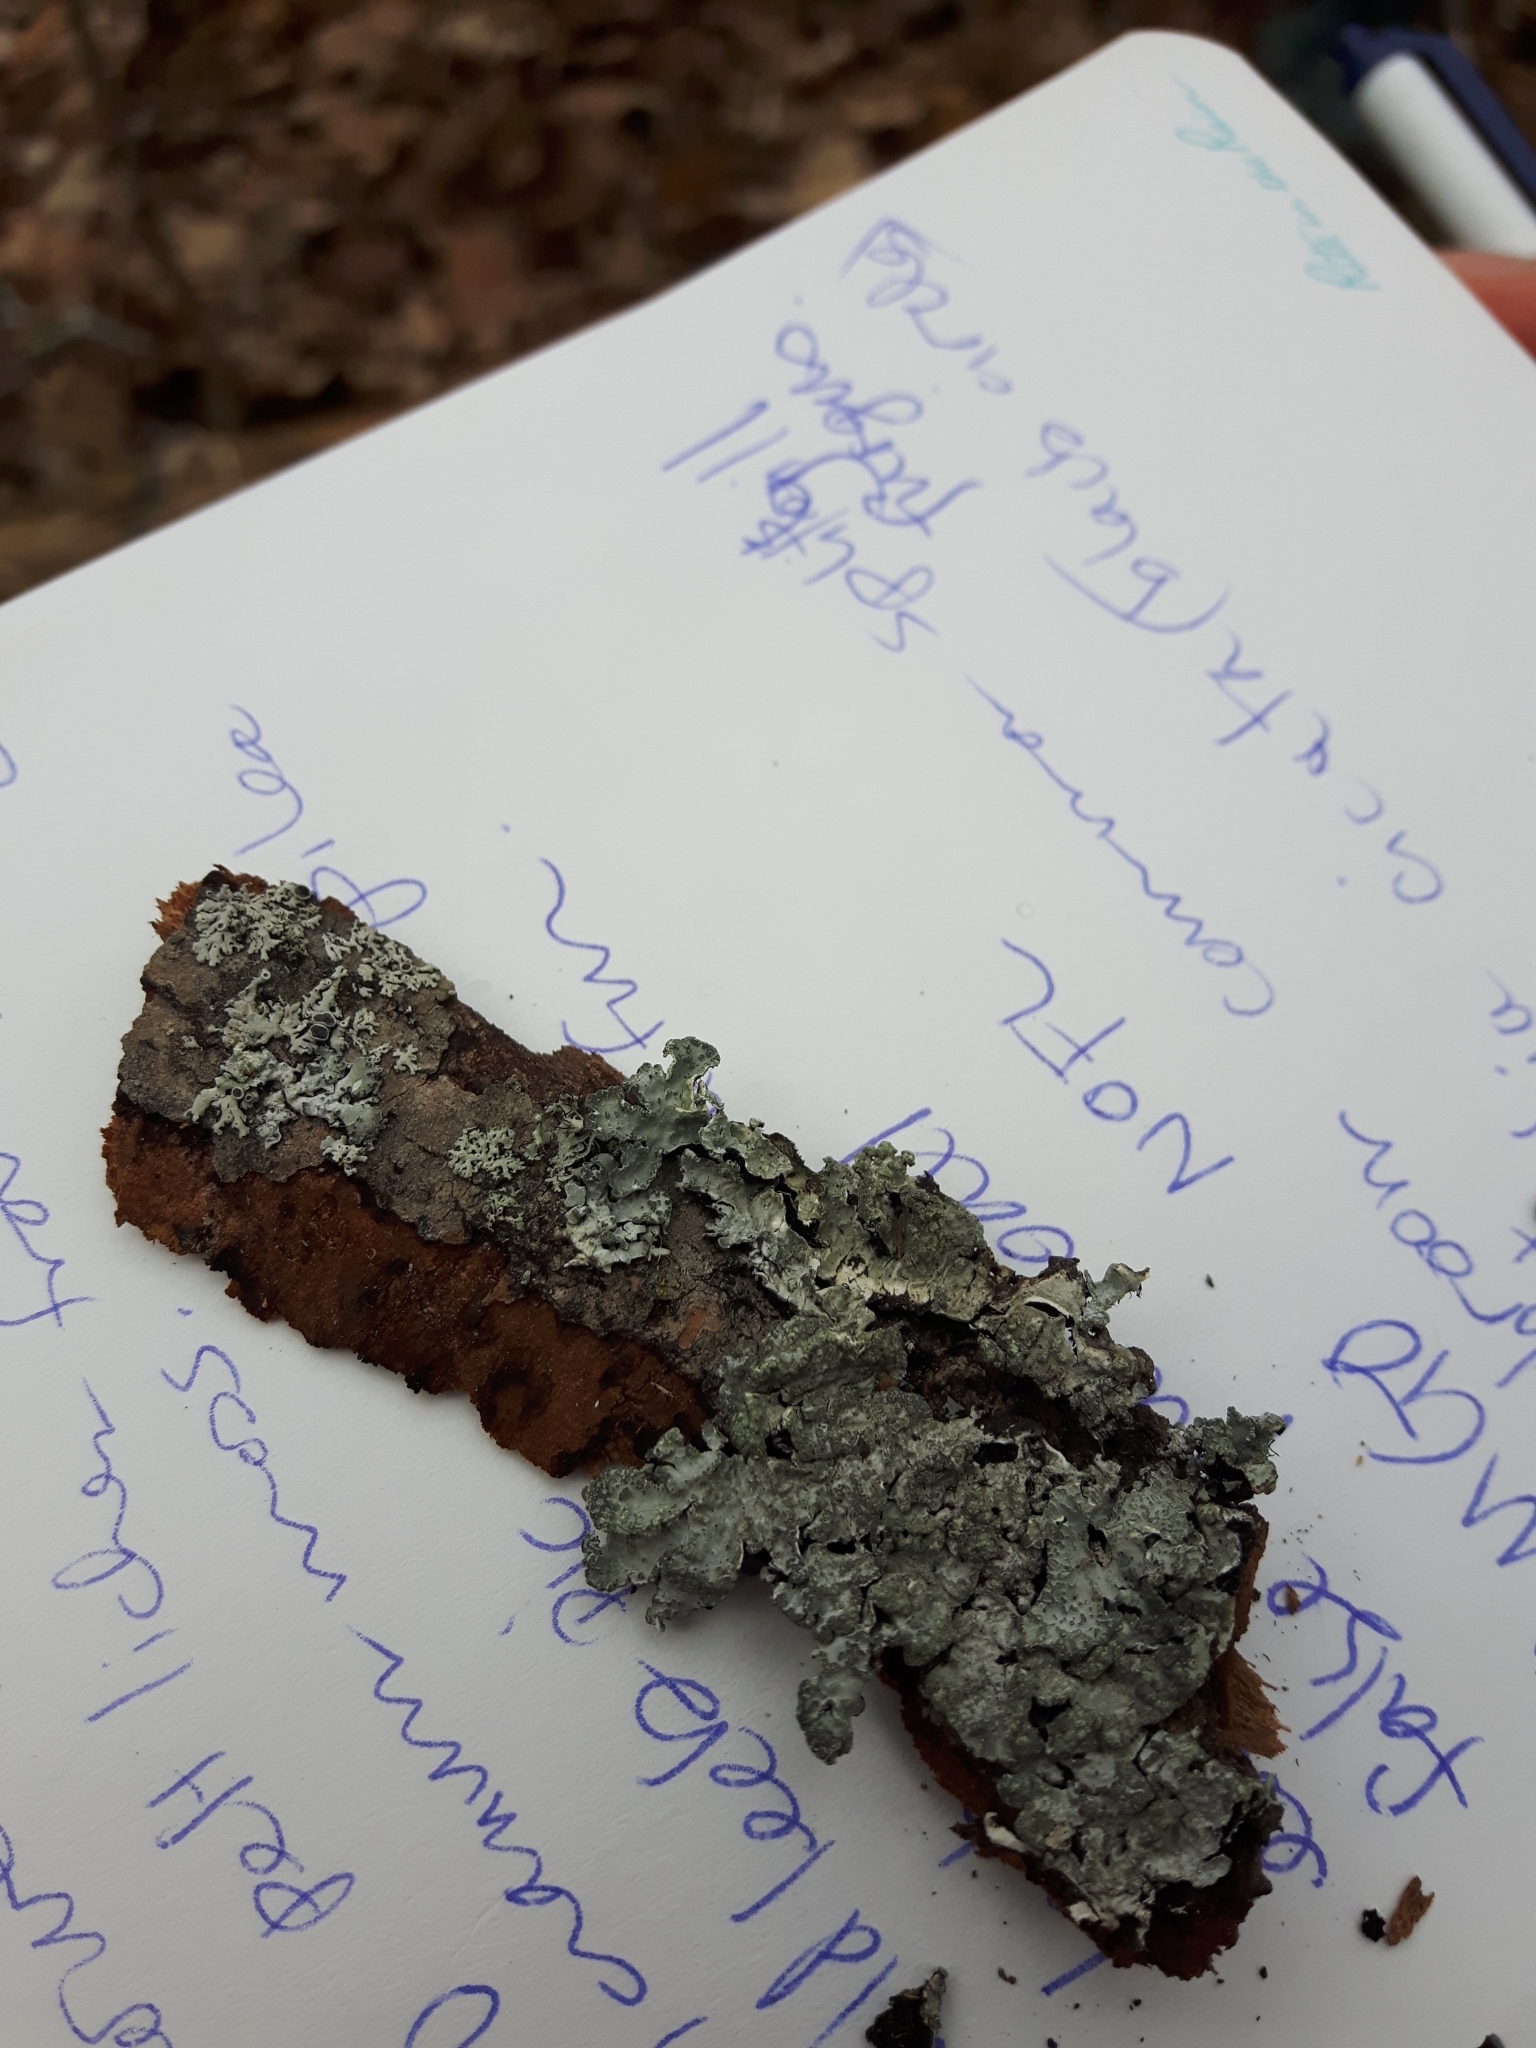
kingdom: Fungi
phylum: Ascomycota
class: Lecanoromycetes
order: Lecanorales
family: Parmeliaceae
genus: Parmelia
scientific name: Parmelia sulcata
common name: Netted shield lichen
